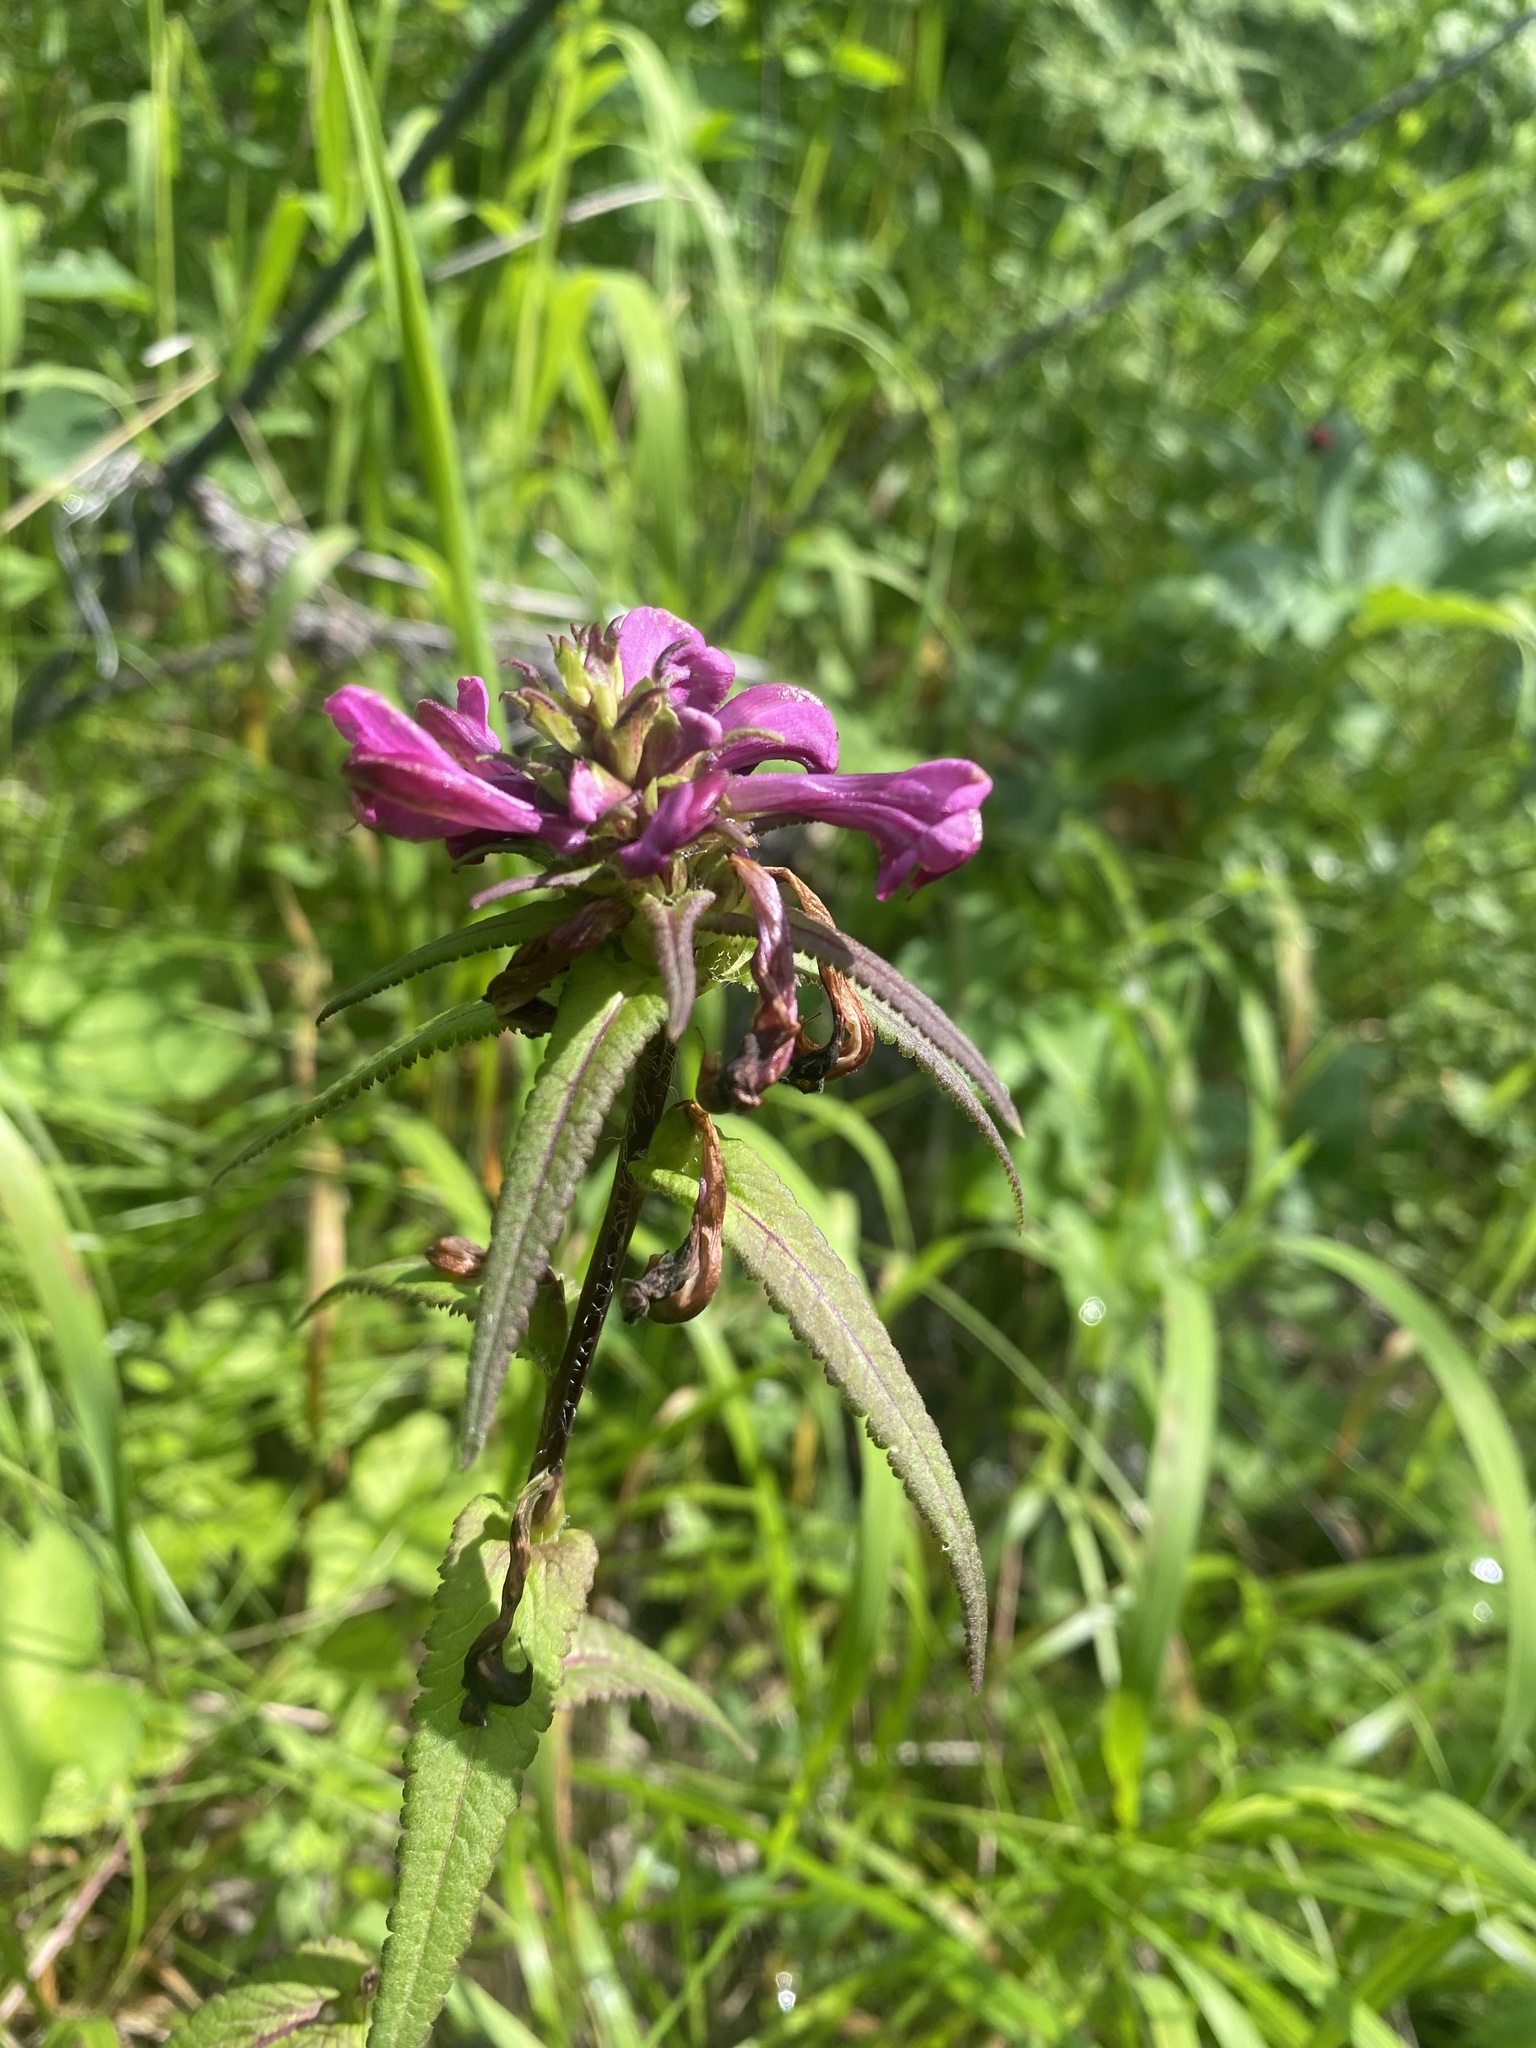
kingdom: Plantae
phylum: Tracheophyta
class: Magnoliopsida
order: Lamiales
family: Orobanchaceae
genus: Pedicularis
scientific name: Pedicularis resupinata
